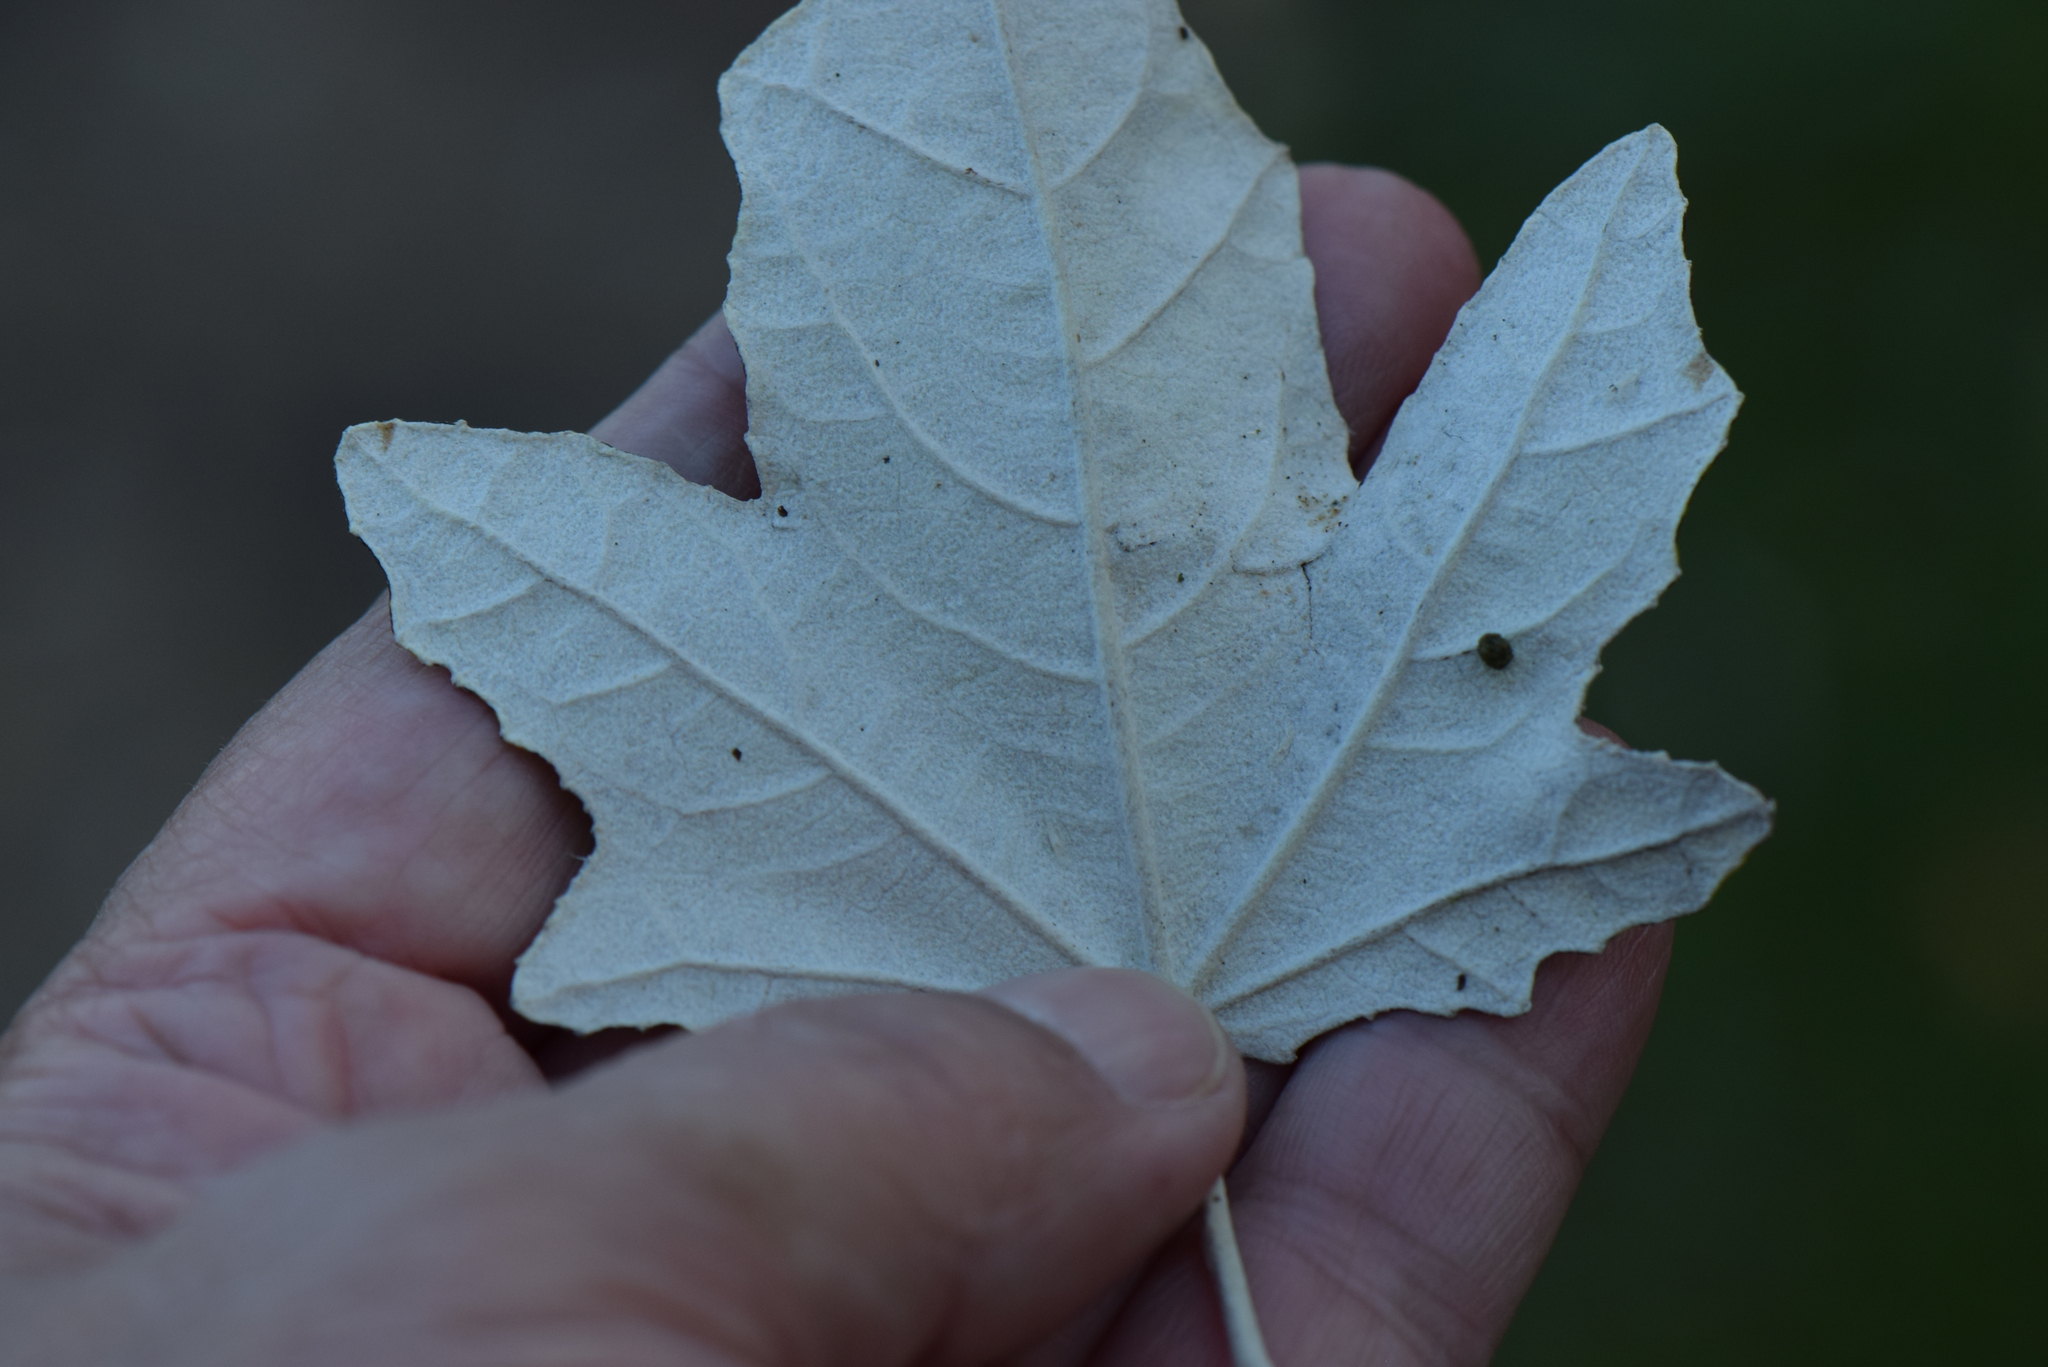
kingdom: Plantae
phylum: Tracheophyta
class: Magnoliopsida
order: Malpighiales
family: Salicaceae
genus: Populus
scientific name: Populus alba
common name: White poplar
